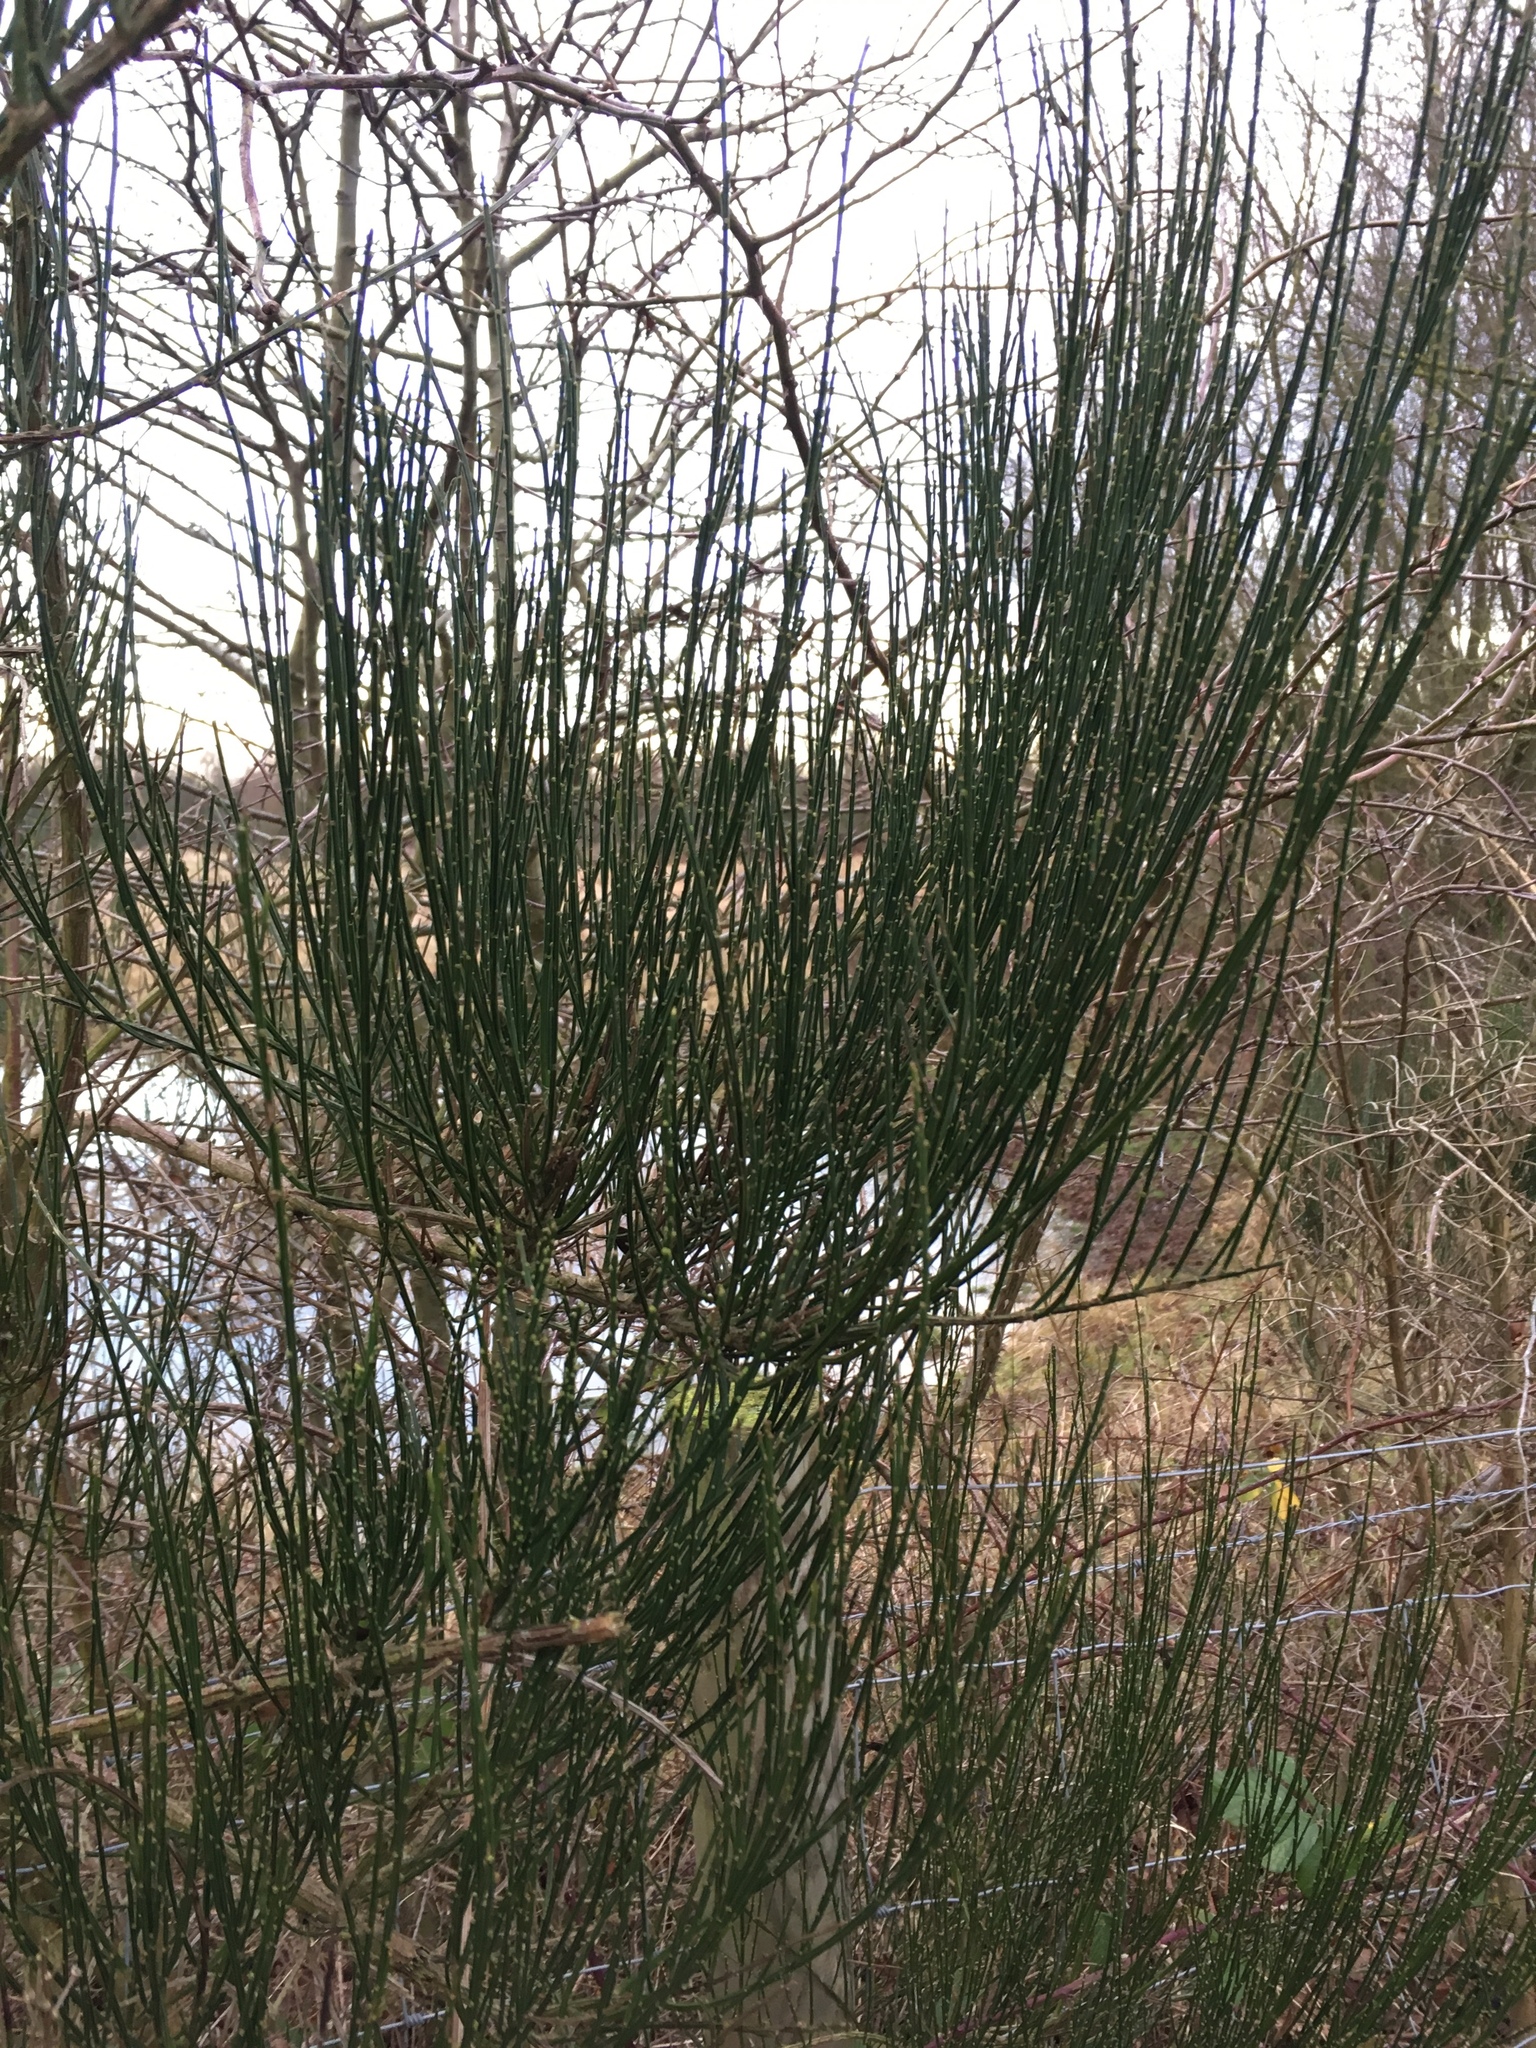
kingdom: Plantae
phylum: Tracheophyta
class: Magnoliopsida
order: Fabales
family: Fabaceae
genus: Cytisus
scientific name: Cytisus scoparius
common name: Scotch broom
